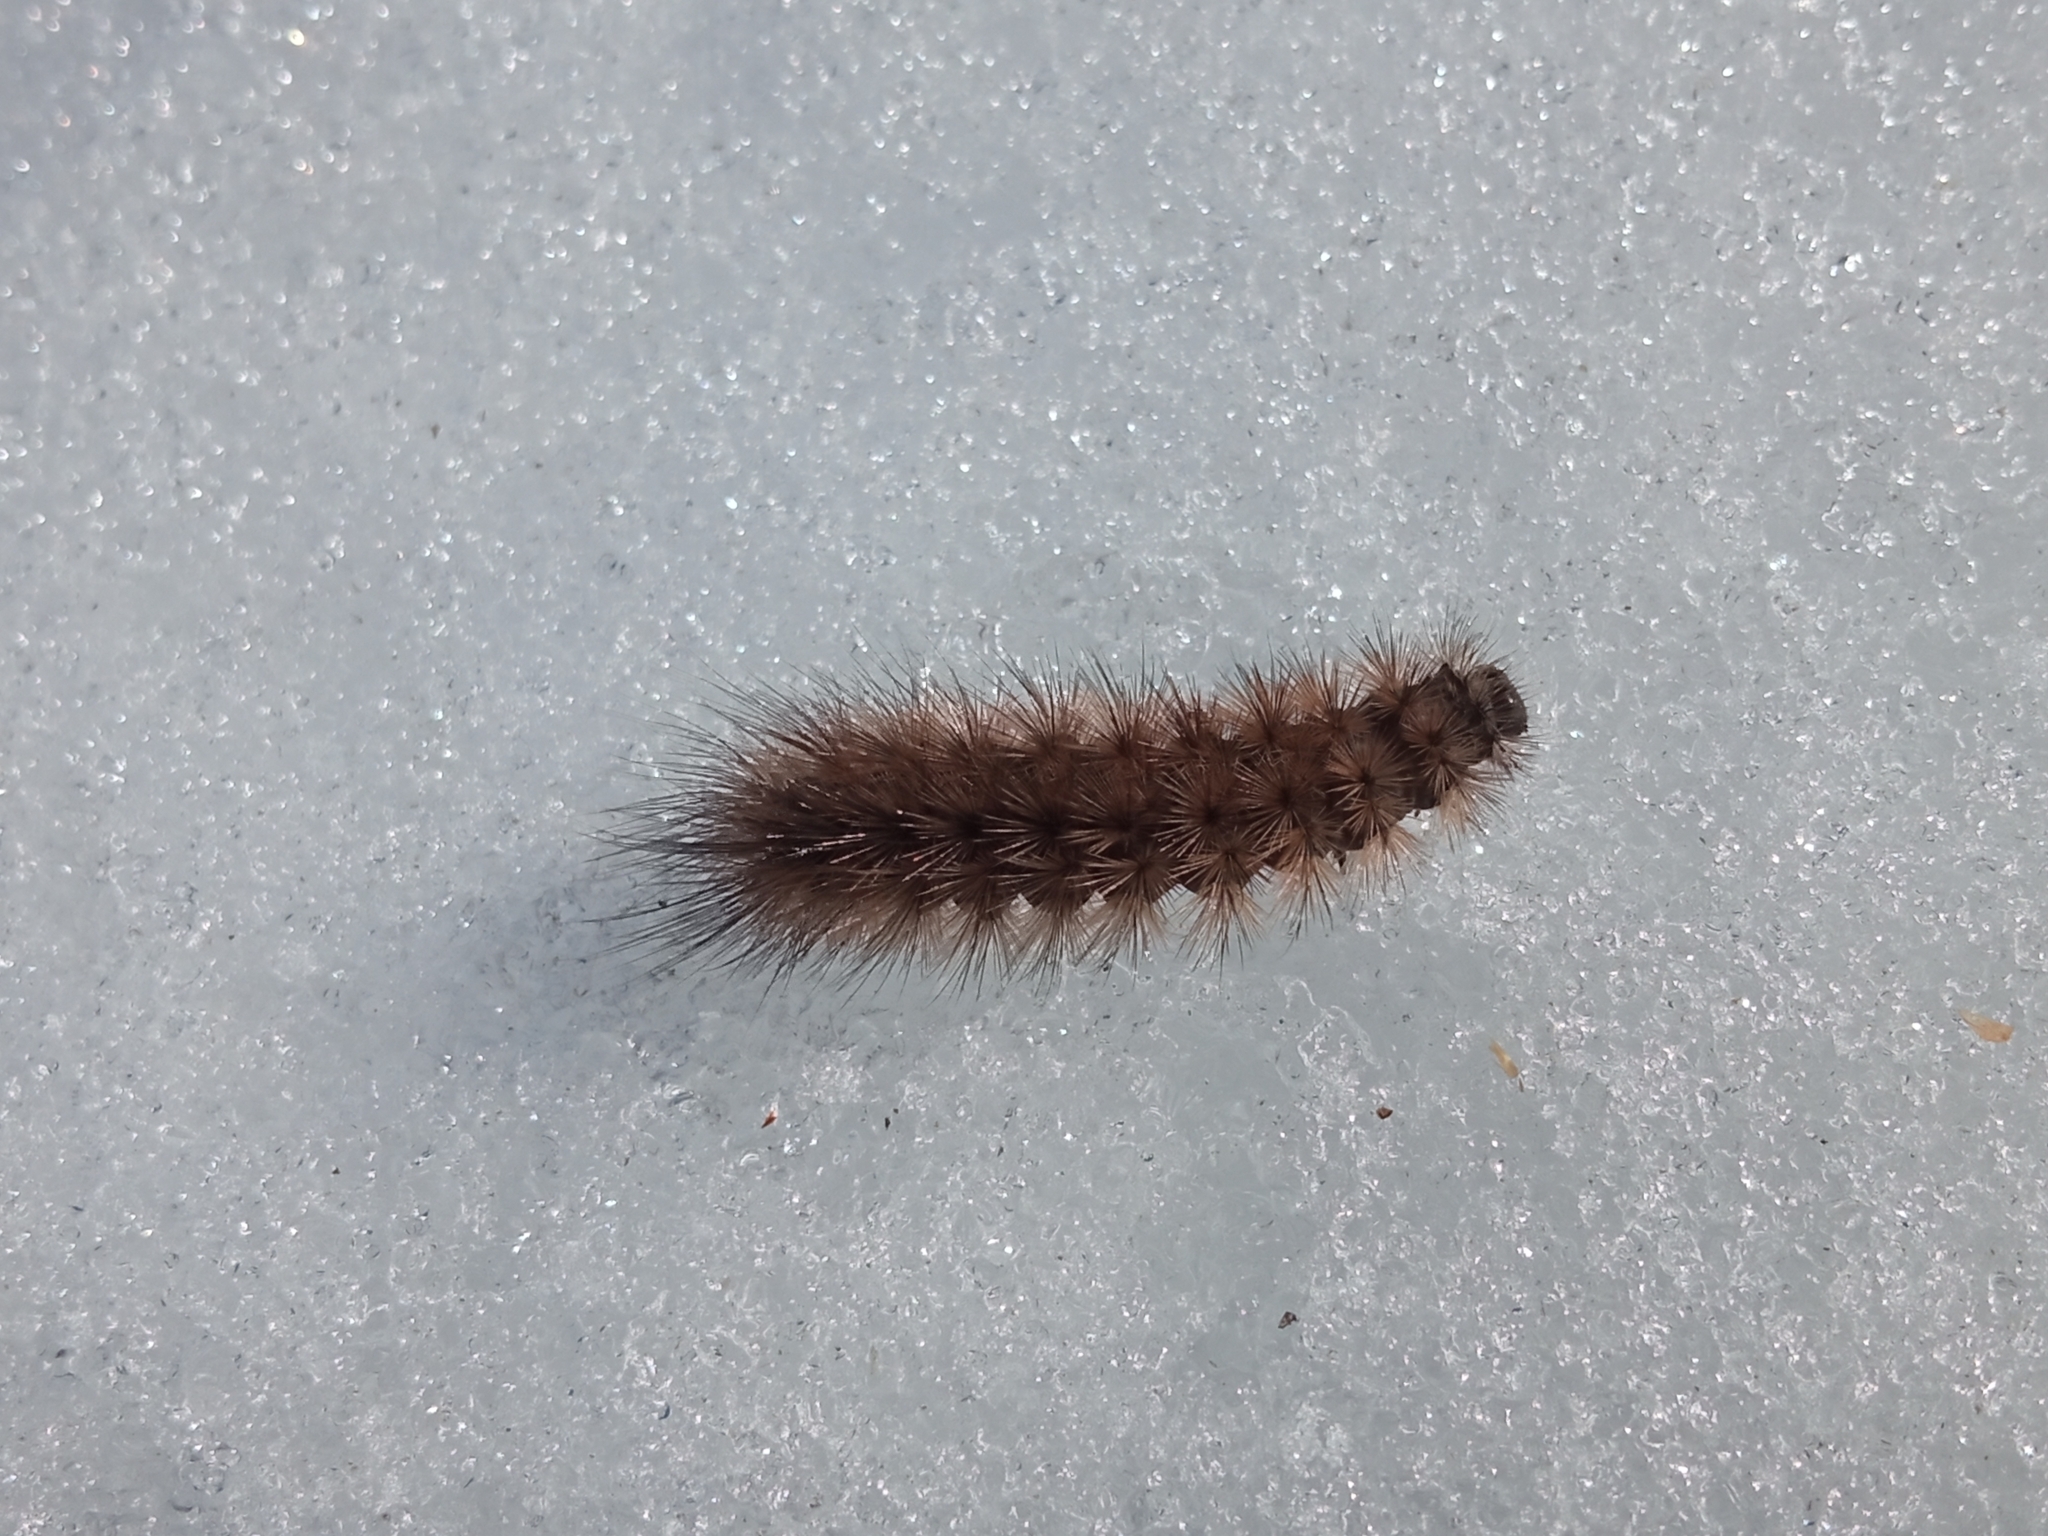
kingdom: Animalia
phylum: Arthropoda
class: Insecta
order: Lepidoptera
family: Erebidae
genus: Phragmatobia
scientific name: Phragmatobia fuliginosa
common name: Ruby tiger
